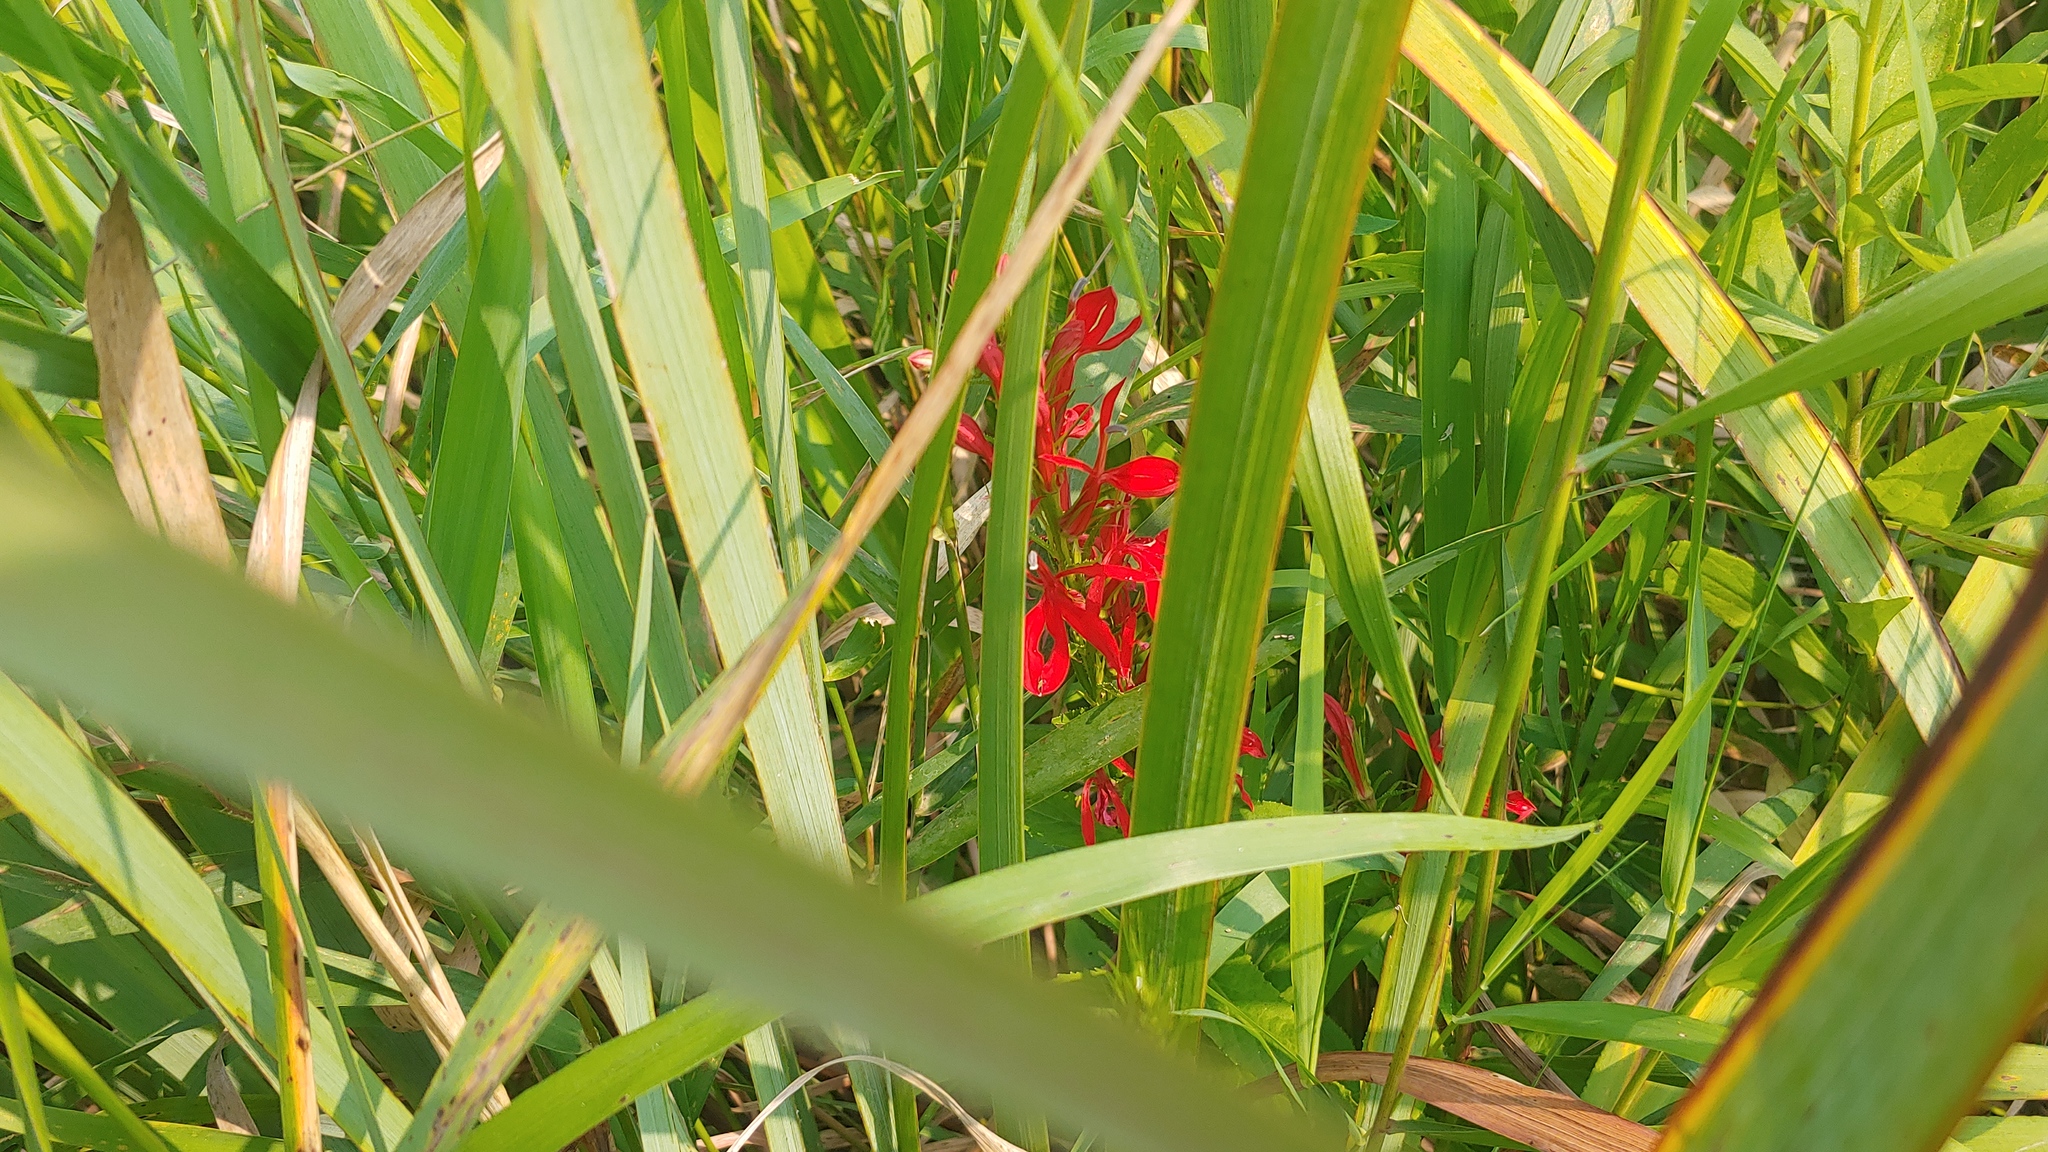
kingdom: Plantae
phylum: Tracheophyta
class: Magnoliopsida
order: Asterales
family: Campanulaceae
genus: Lobelia
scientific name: Lobelia cardinalis
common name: Cardinal flower
